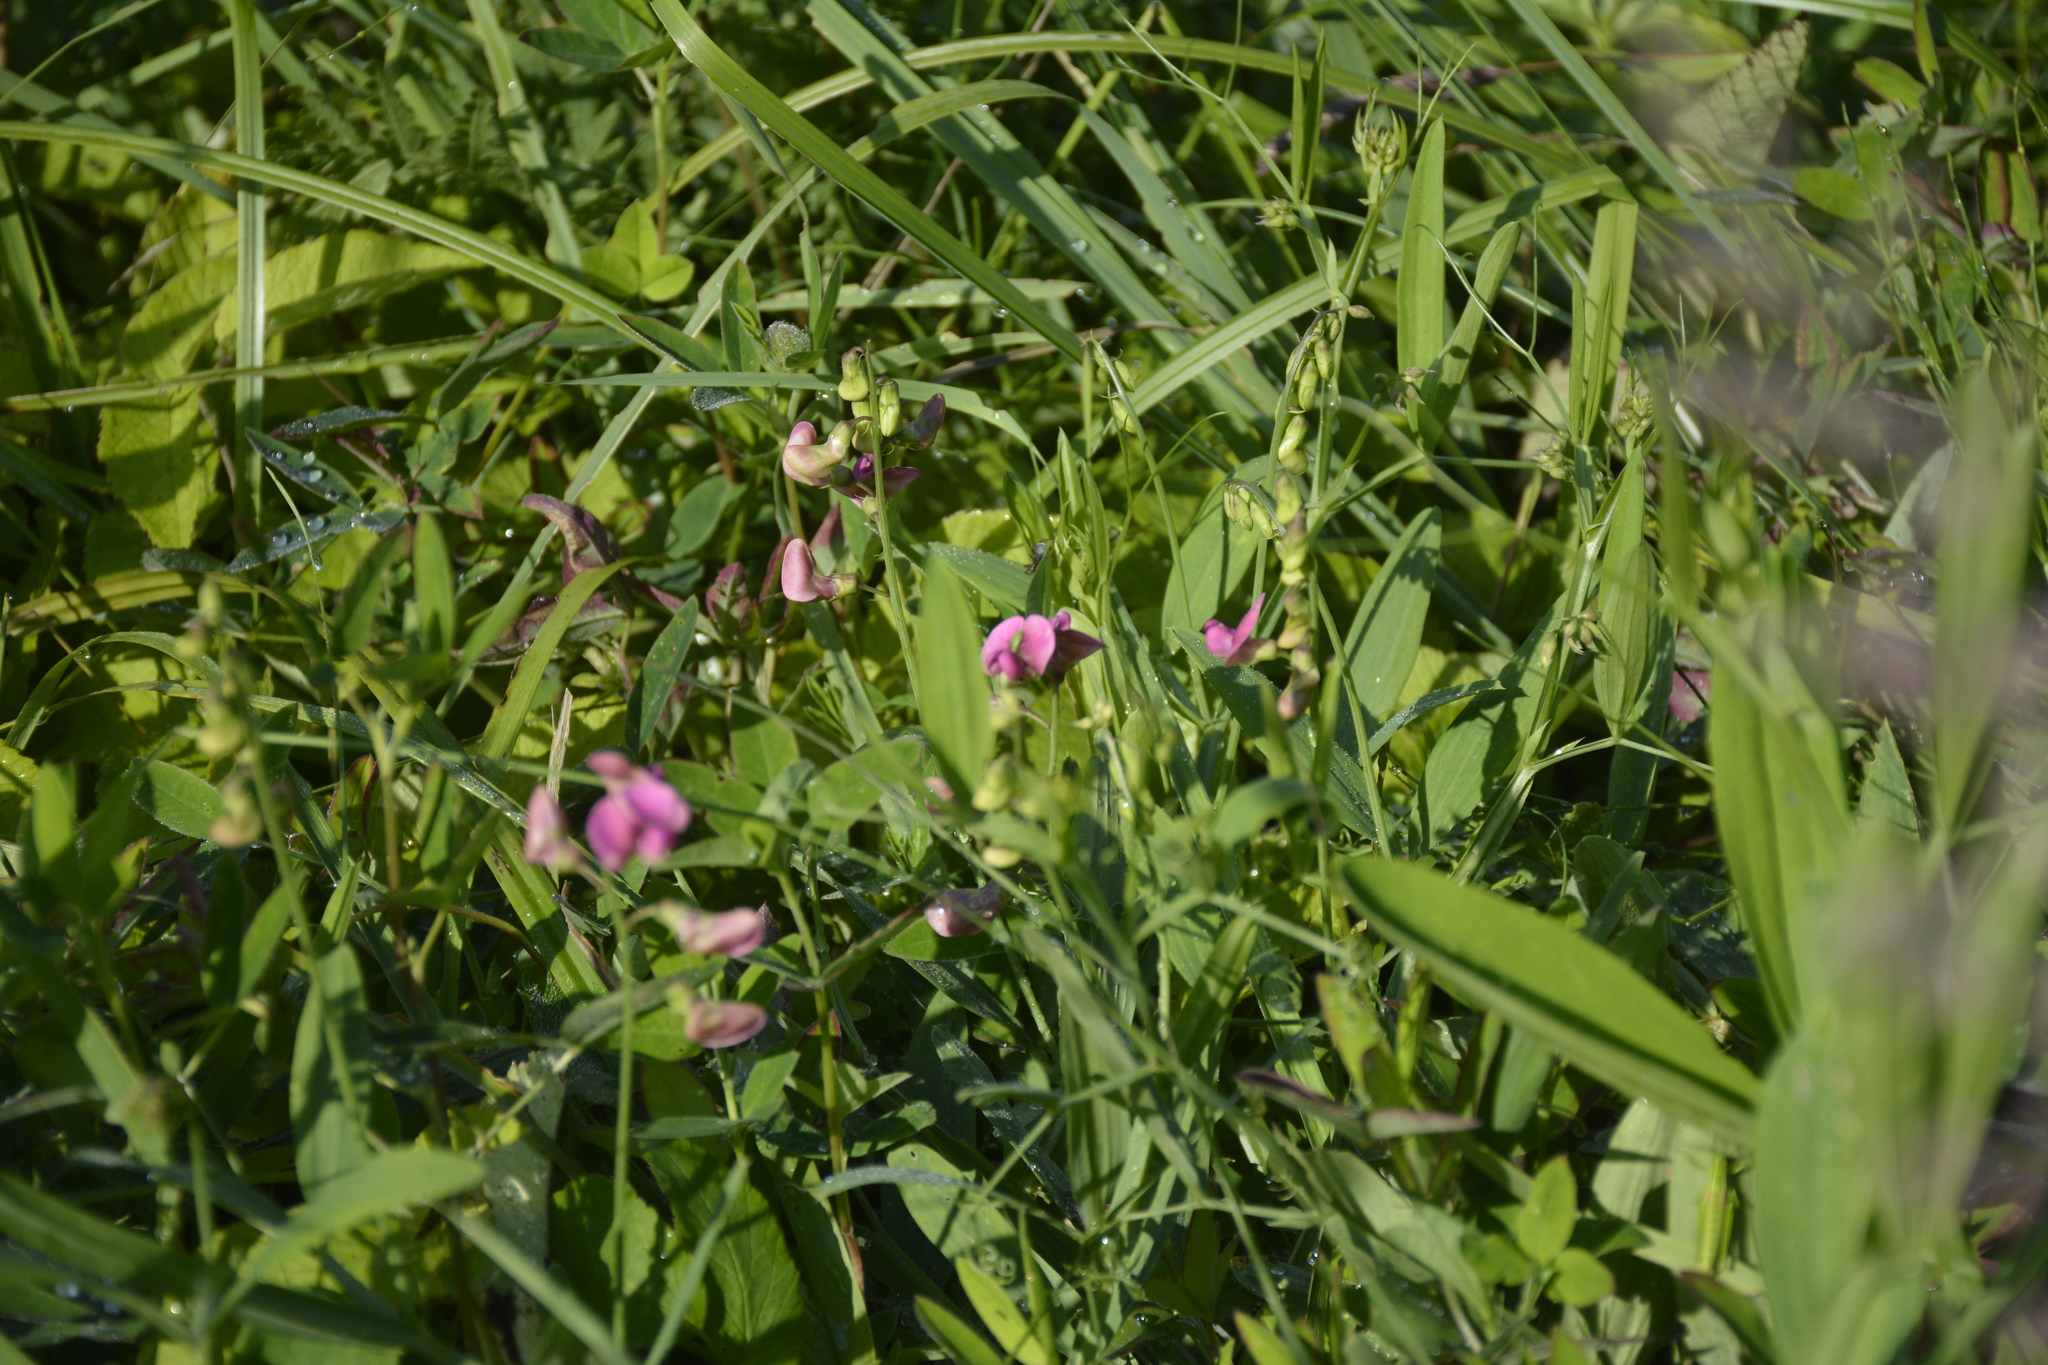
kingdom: Plantae
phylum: Tracheophyta
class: Magnoliopsida
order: Fabales
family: Fabaceae
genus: Lathyrus
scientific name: Lathyrus sylvestris
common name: Flat pea
